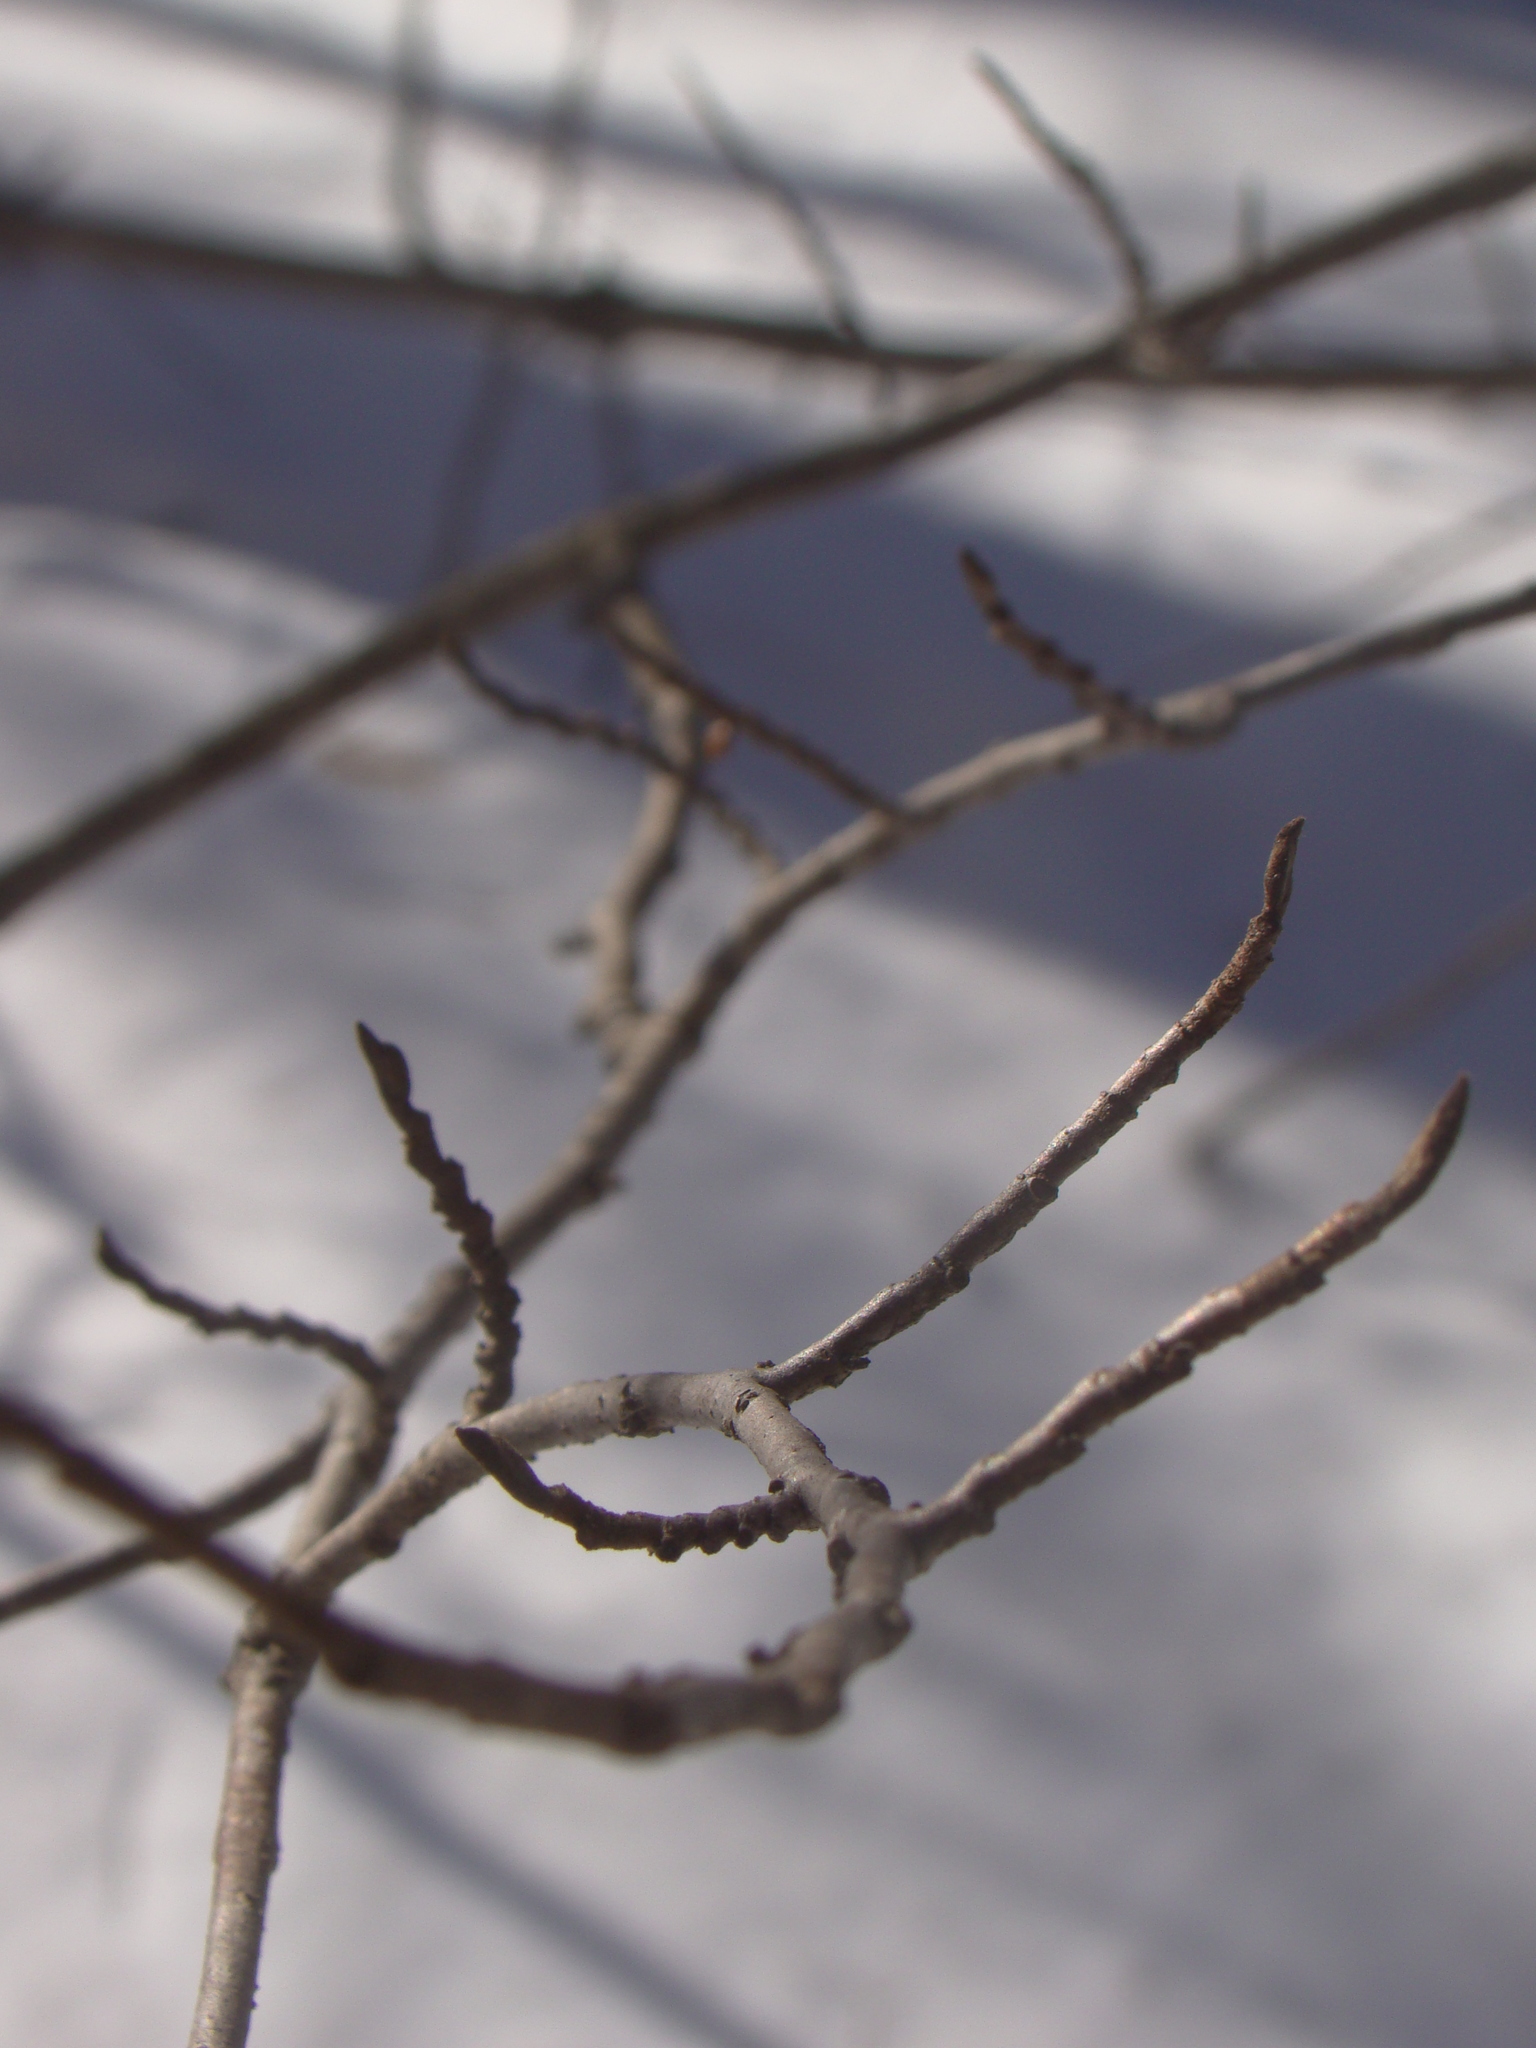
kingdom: Plantae
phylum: Tracheophyta
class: Magnoliopsida
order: Saxifragales
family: Hamamelidaceae
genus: Hamamelis
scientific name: Hamamelis virginiana
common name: Witch-hazel
